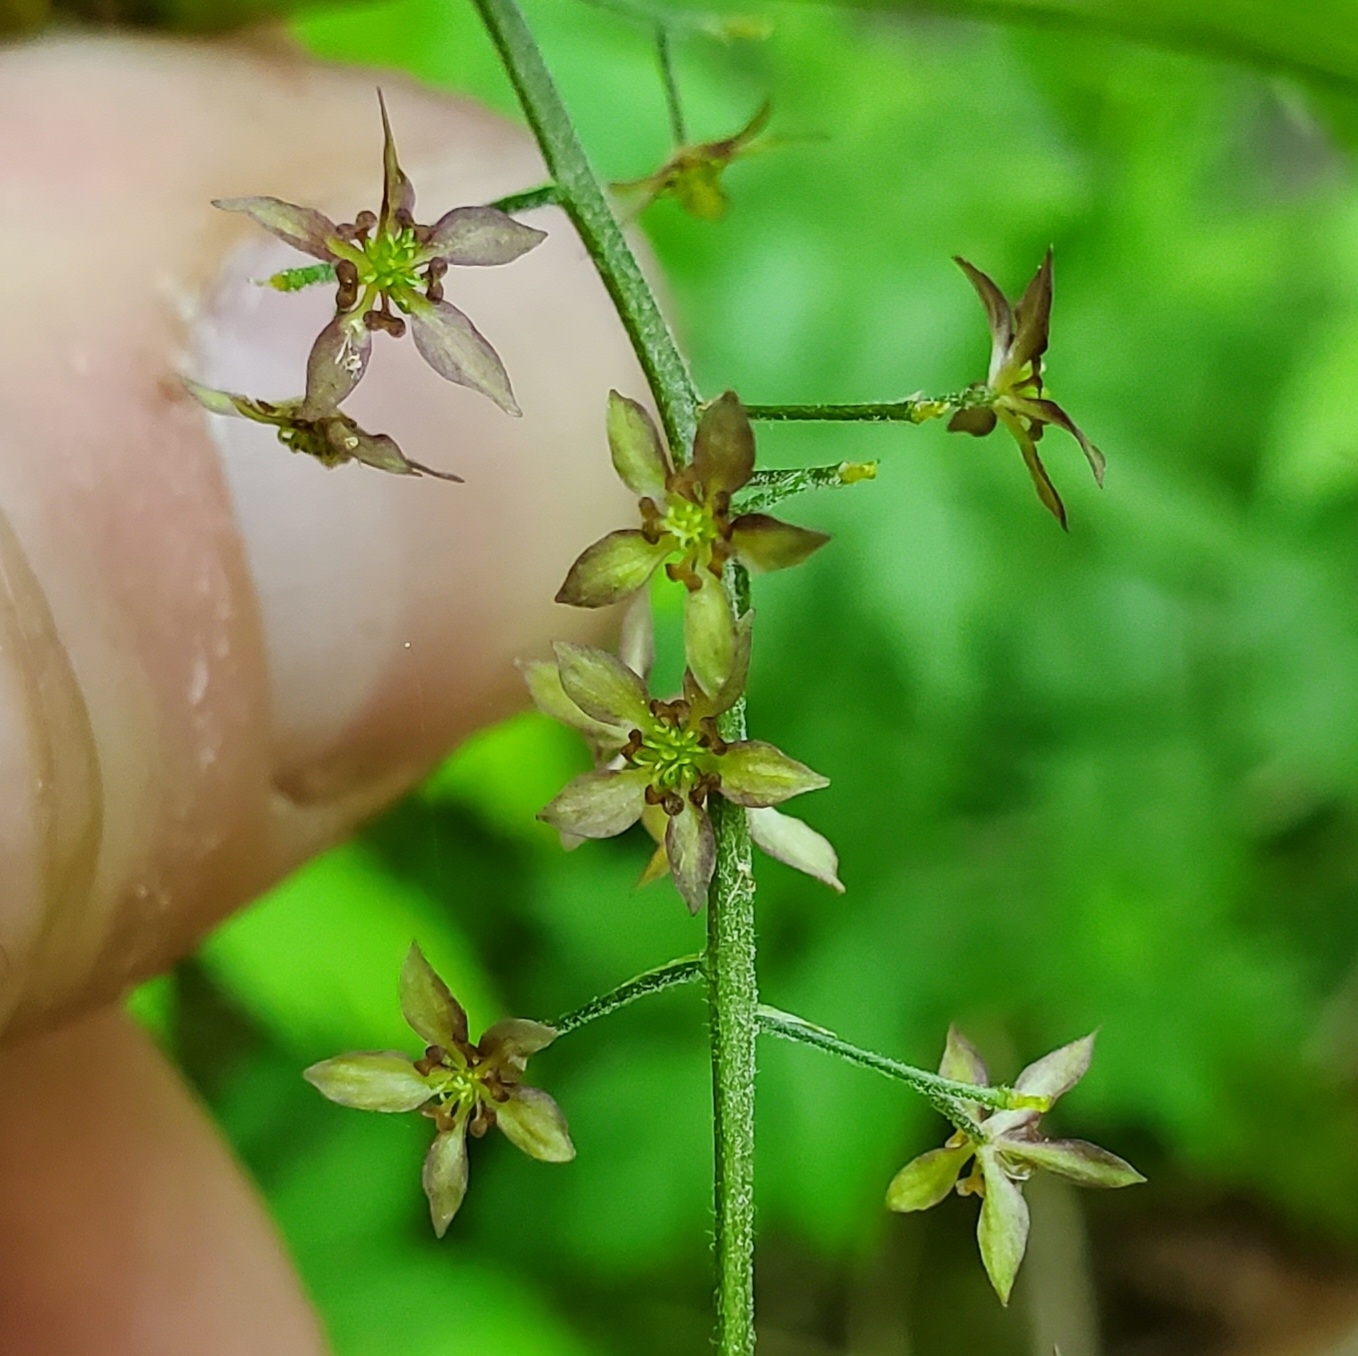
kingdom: Plantae
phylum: Tracheophyta
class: Magnoliopsida
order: Ranunculales
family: Ranunculaceae
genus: Xanthorhiza
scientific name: Xanthorhiza simplicissima
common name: Yellowroot
